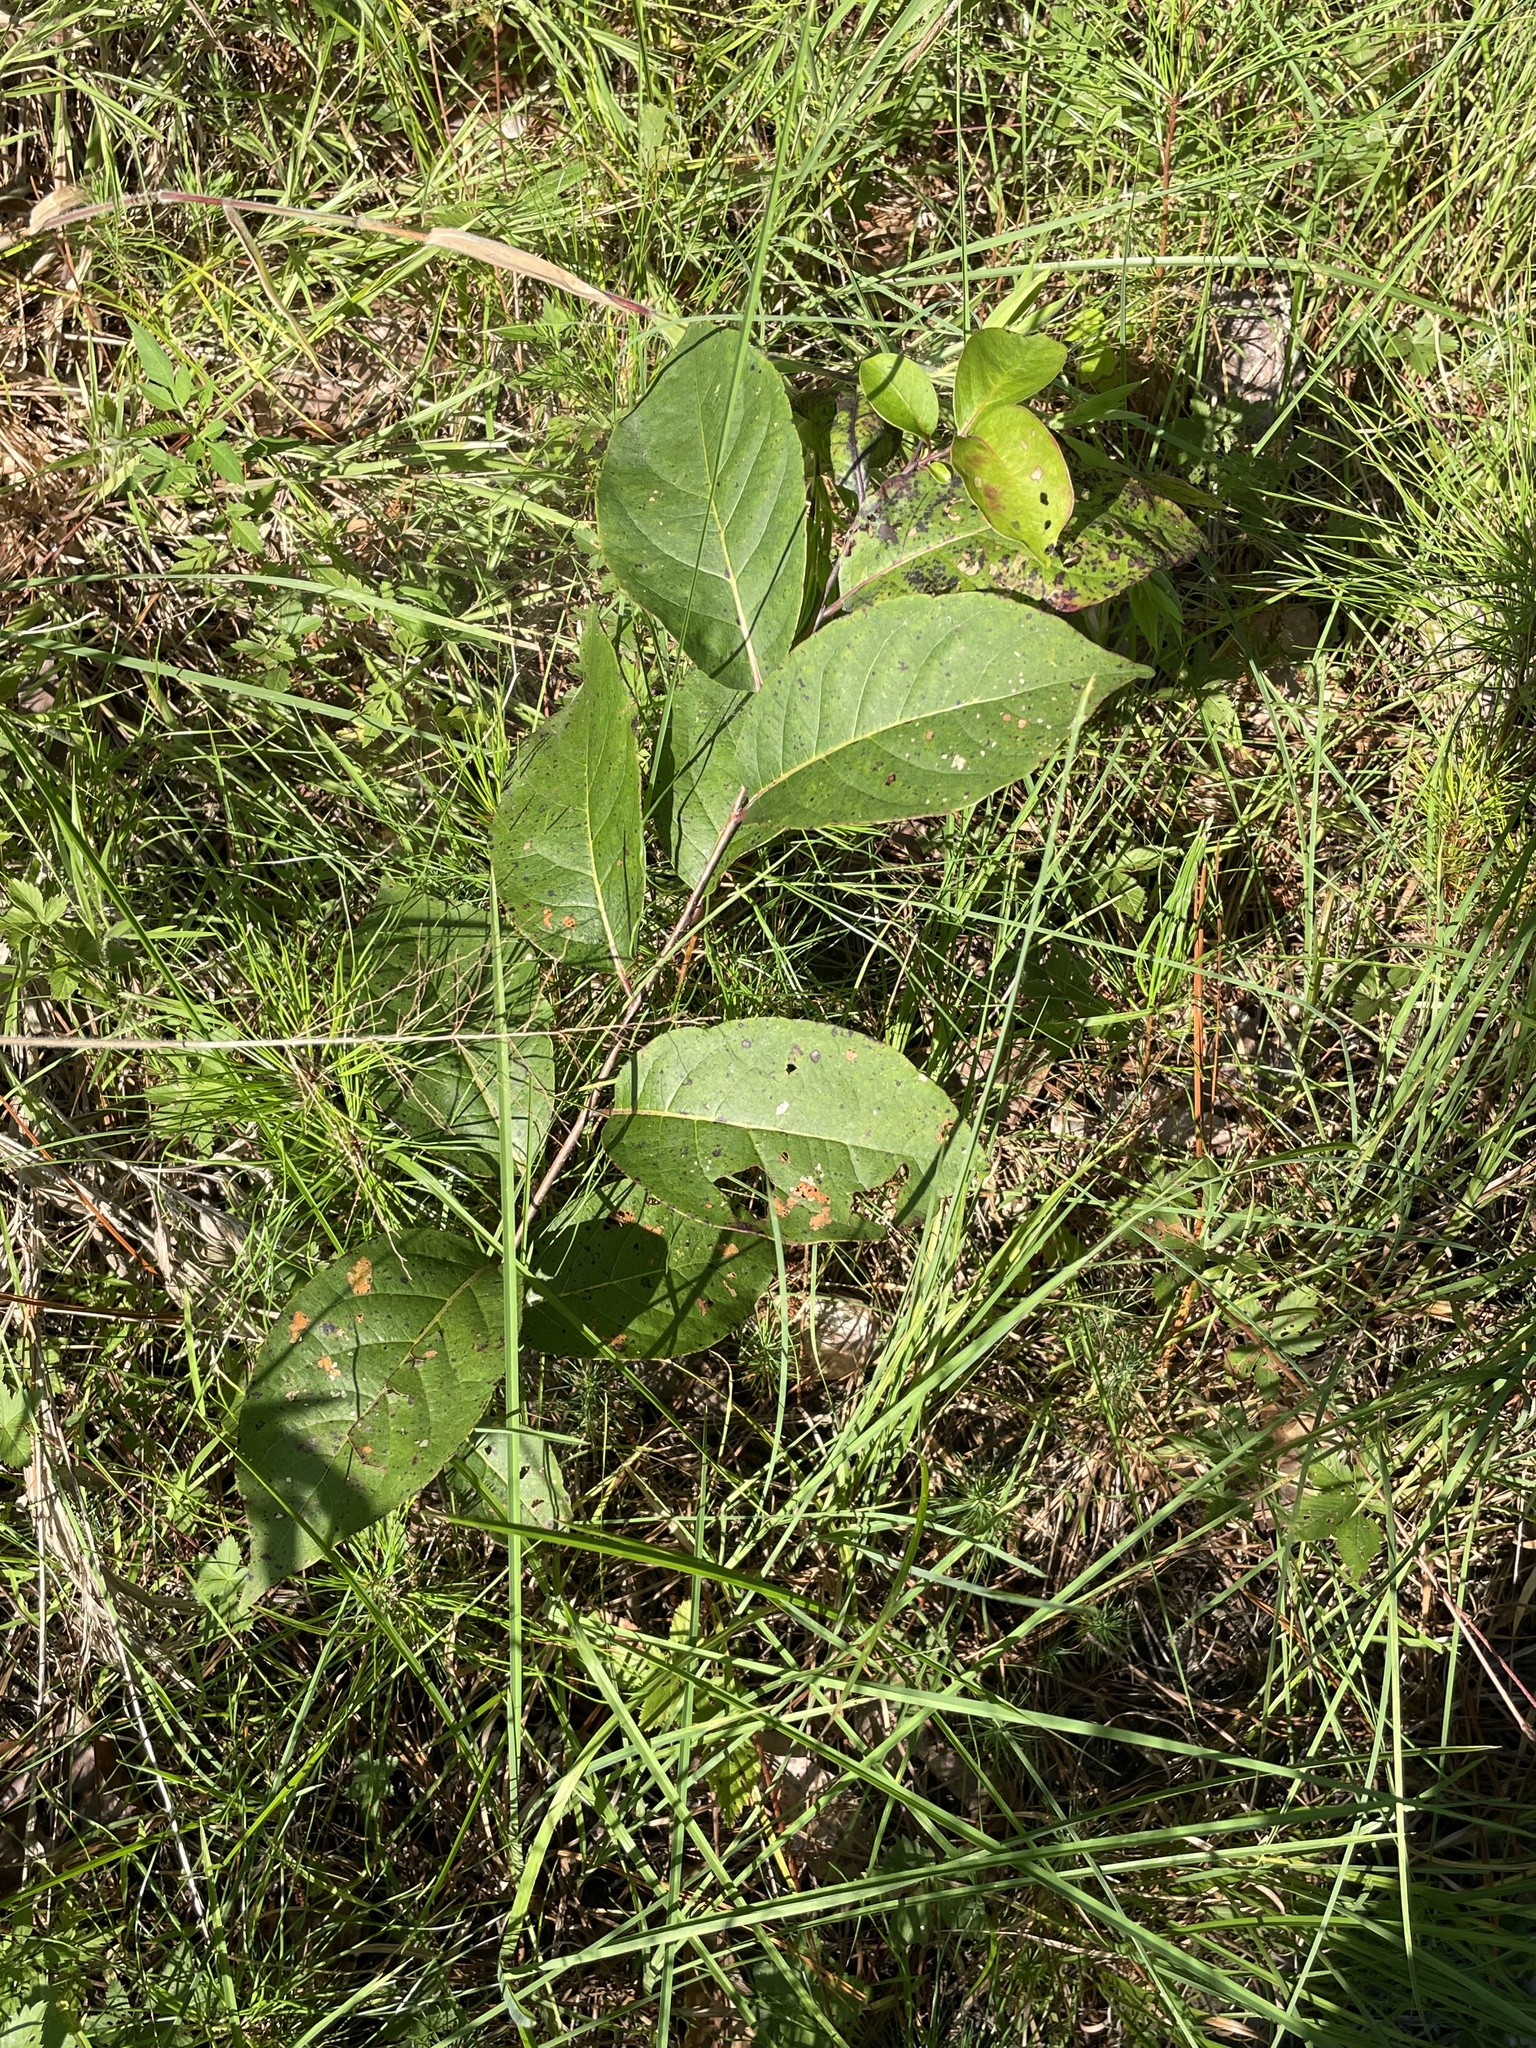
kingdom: Plantae
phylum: Tracheophyta
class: Magnoliopsida
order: Ericales
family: Ebenaceae
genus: Diospyros
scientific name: Diospyros virginiana
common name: Persimmon
